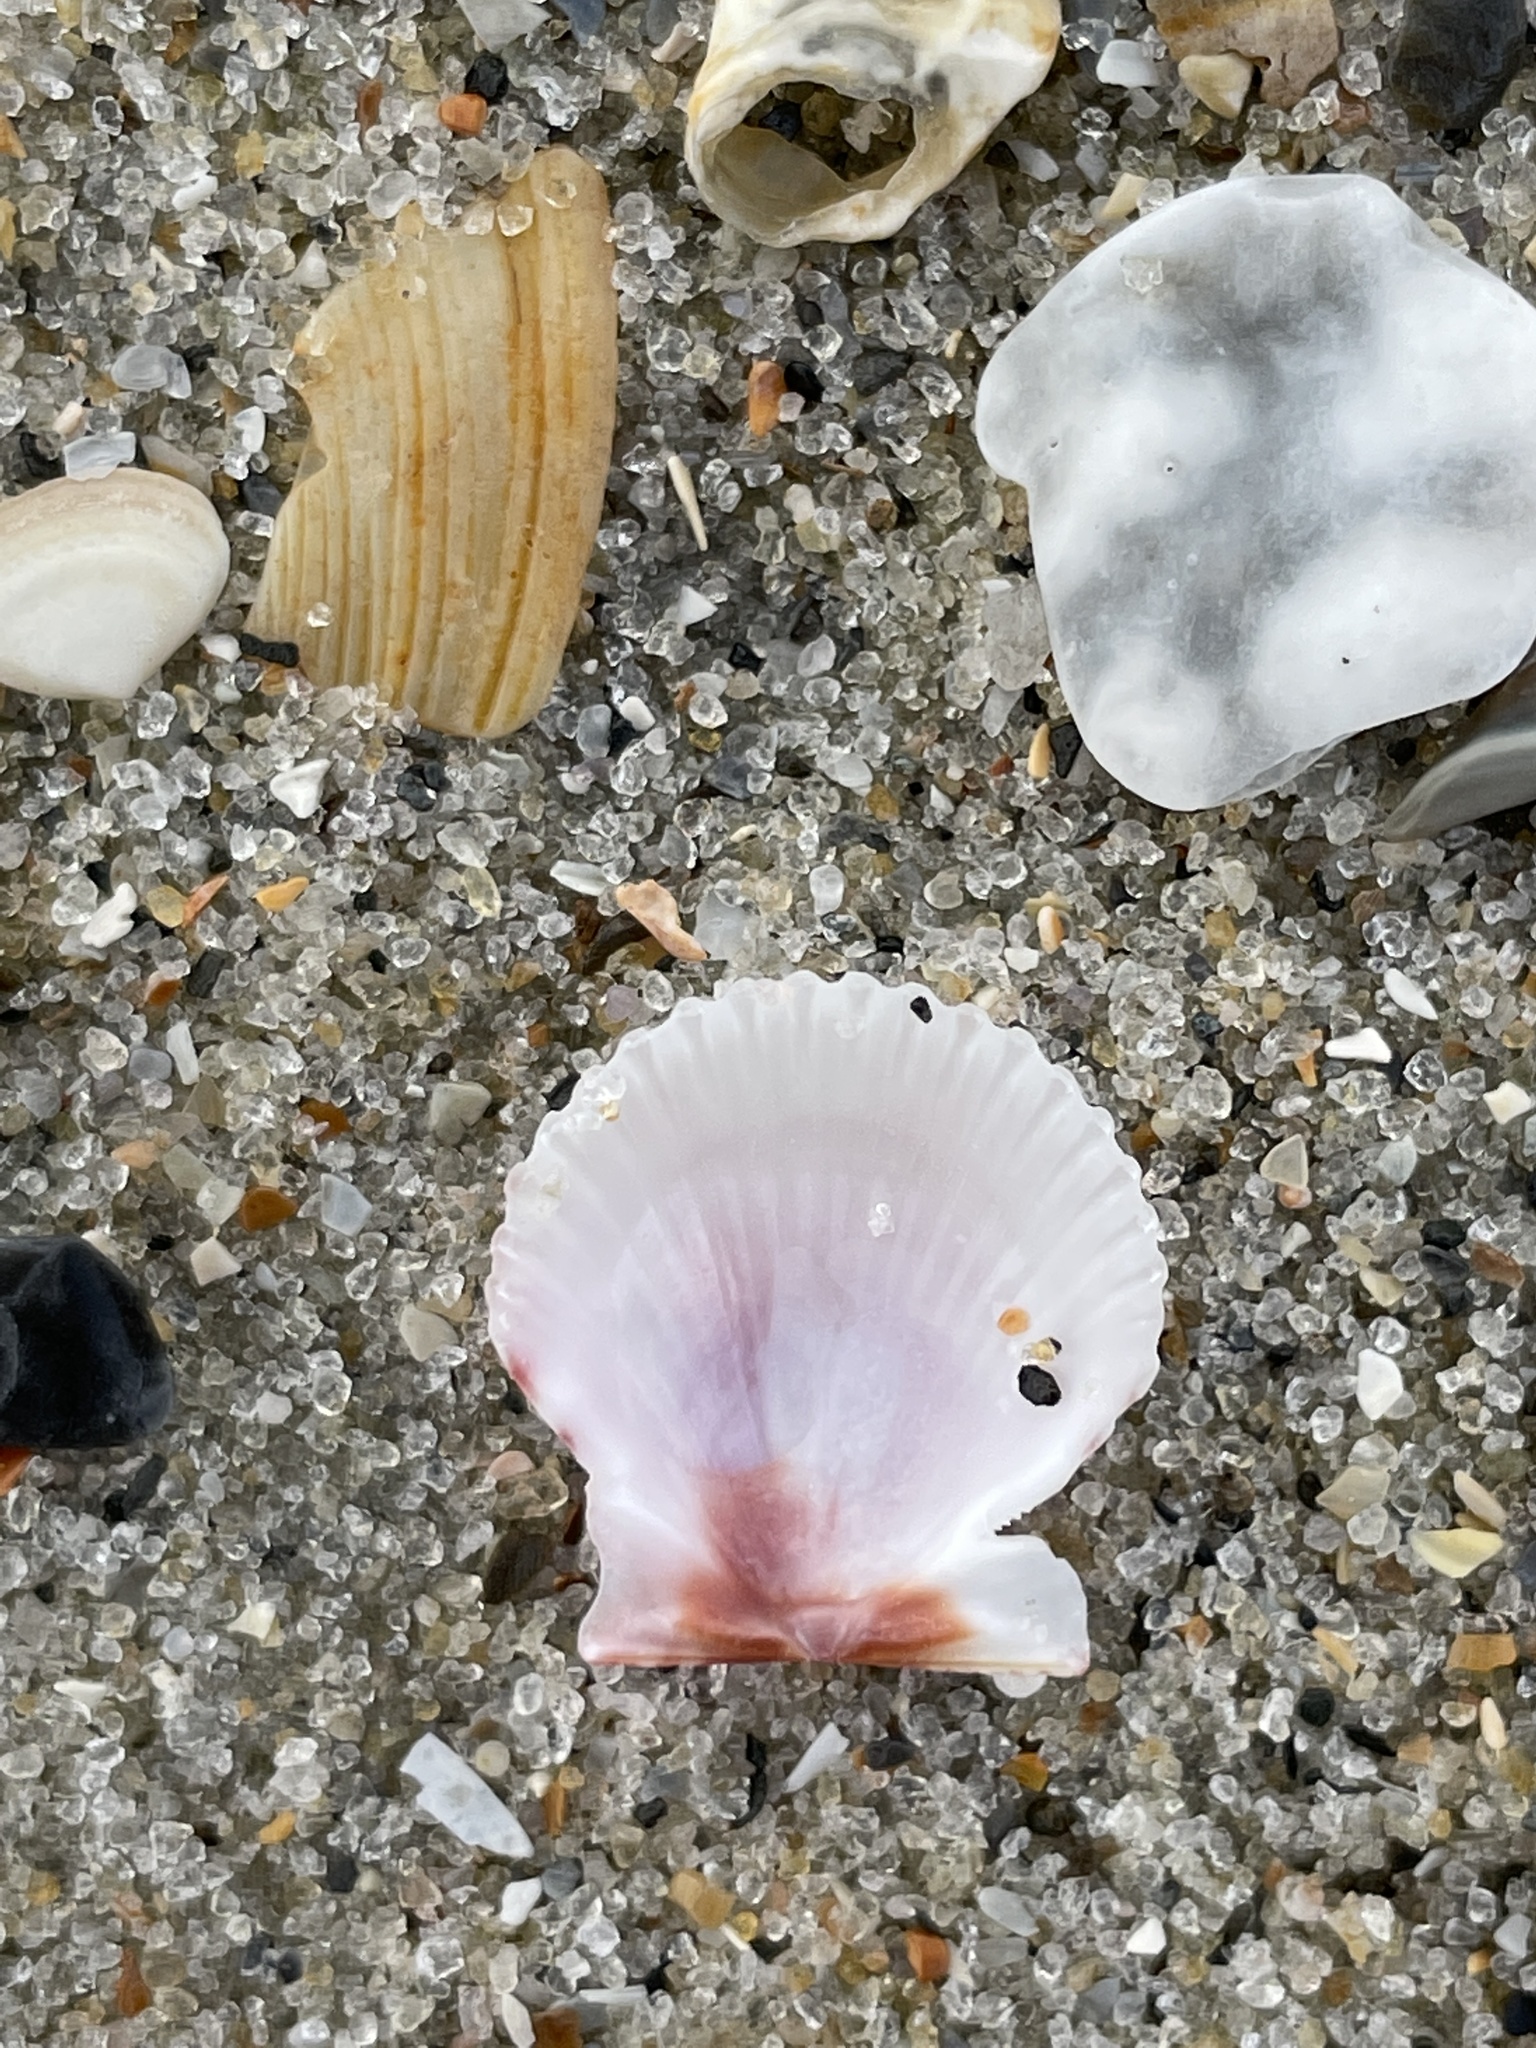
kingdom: Animalia
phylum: Mollusca
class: Bivalvia
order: Pectinida
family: Pectinidae
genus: Lindapecten
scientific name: Lindapecten muscosus
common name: Rough scallop
